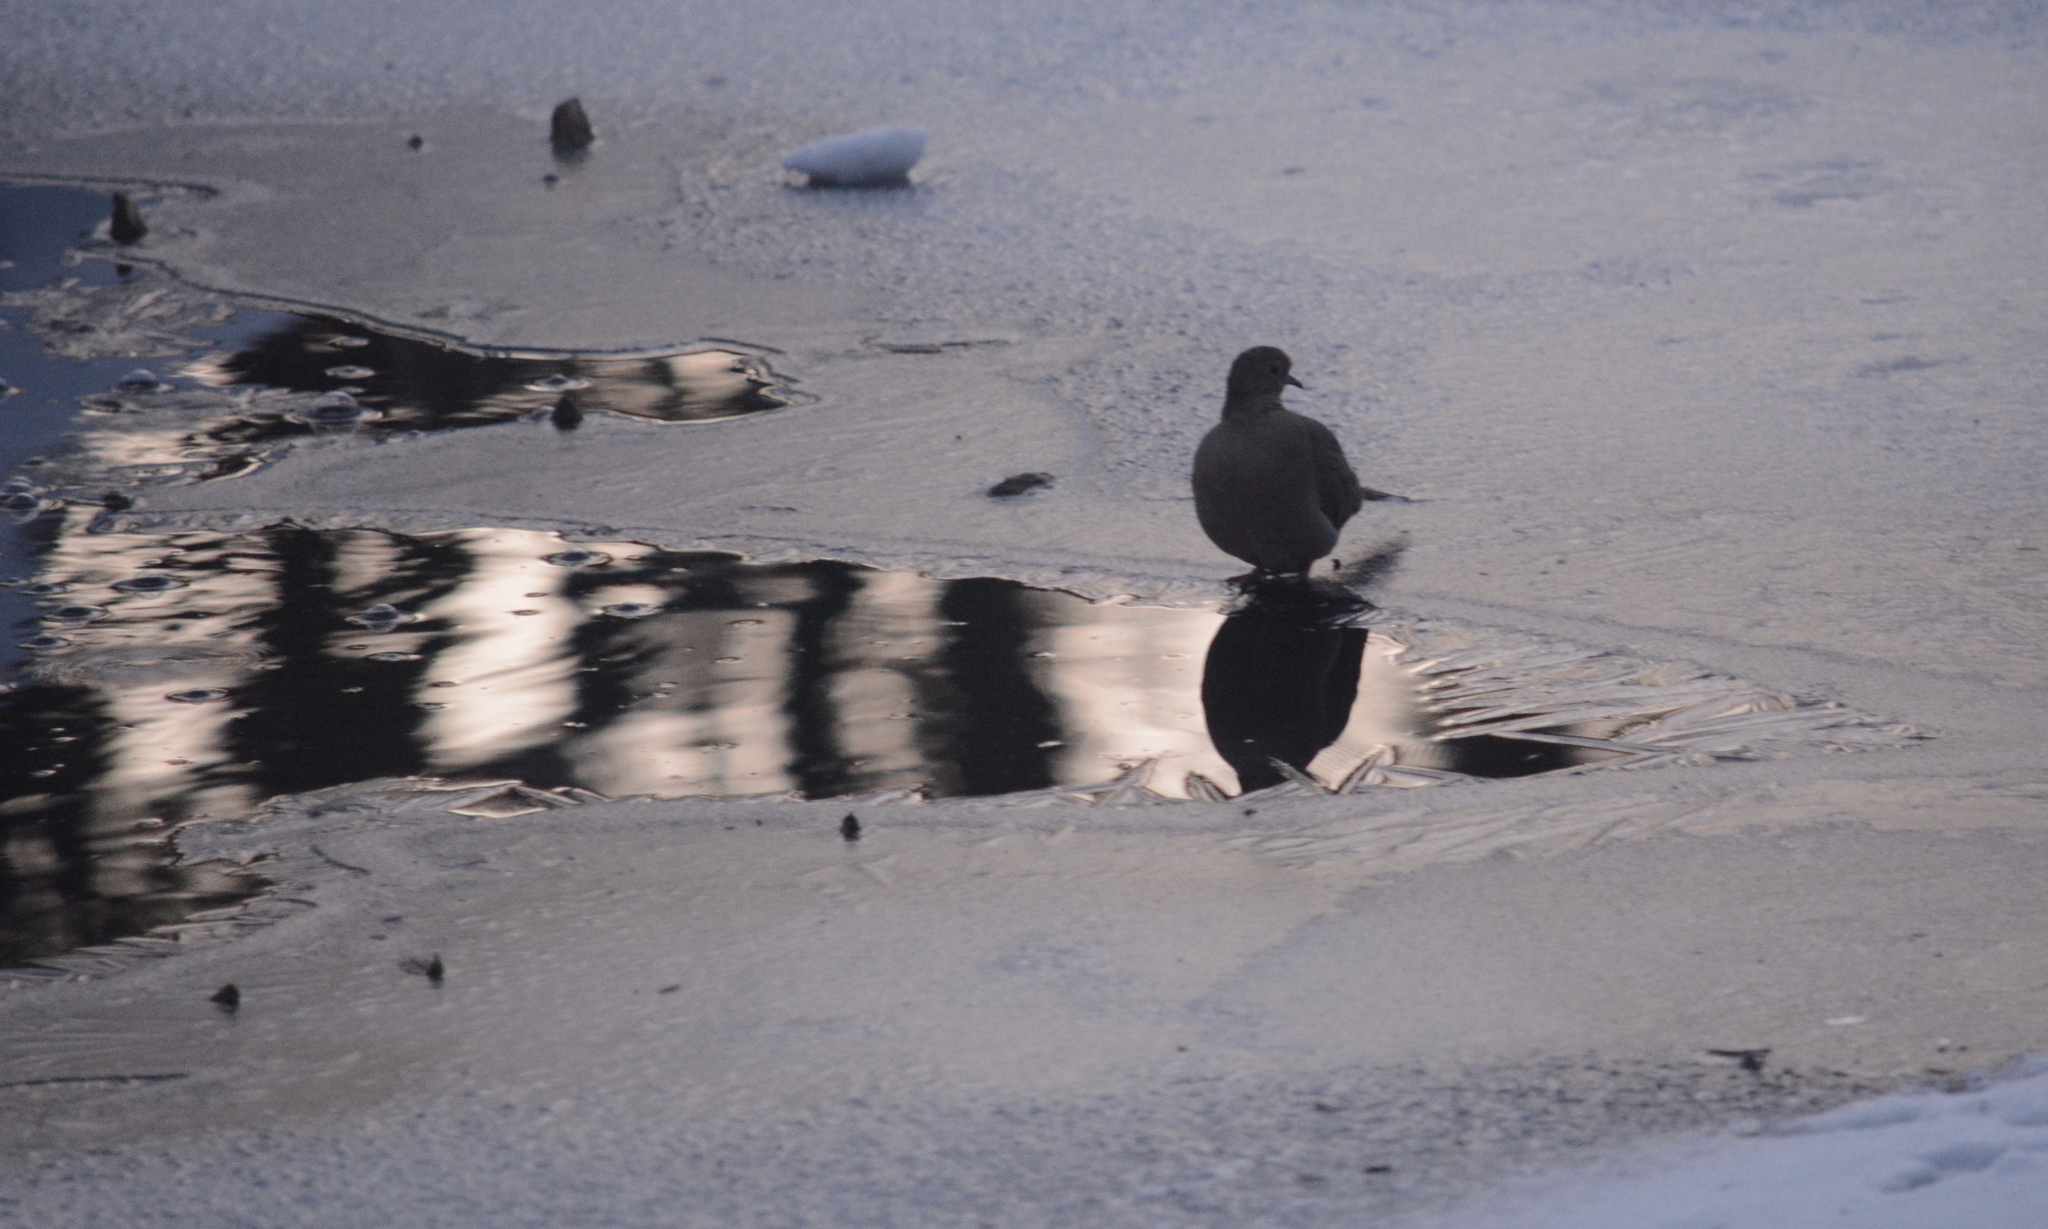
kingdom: Animalia
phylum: Chordata
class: Aves
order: Columbiformes
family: Columbidae
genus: Zenaida
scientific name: Zenaida macroura
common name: Mourning dove
